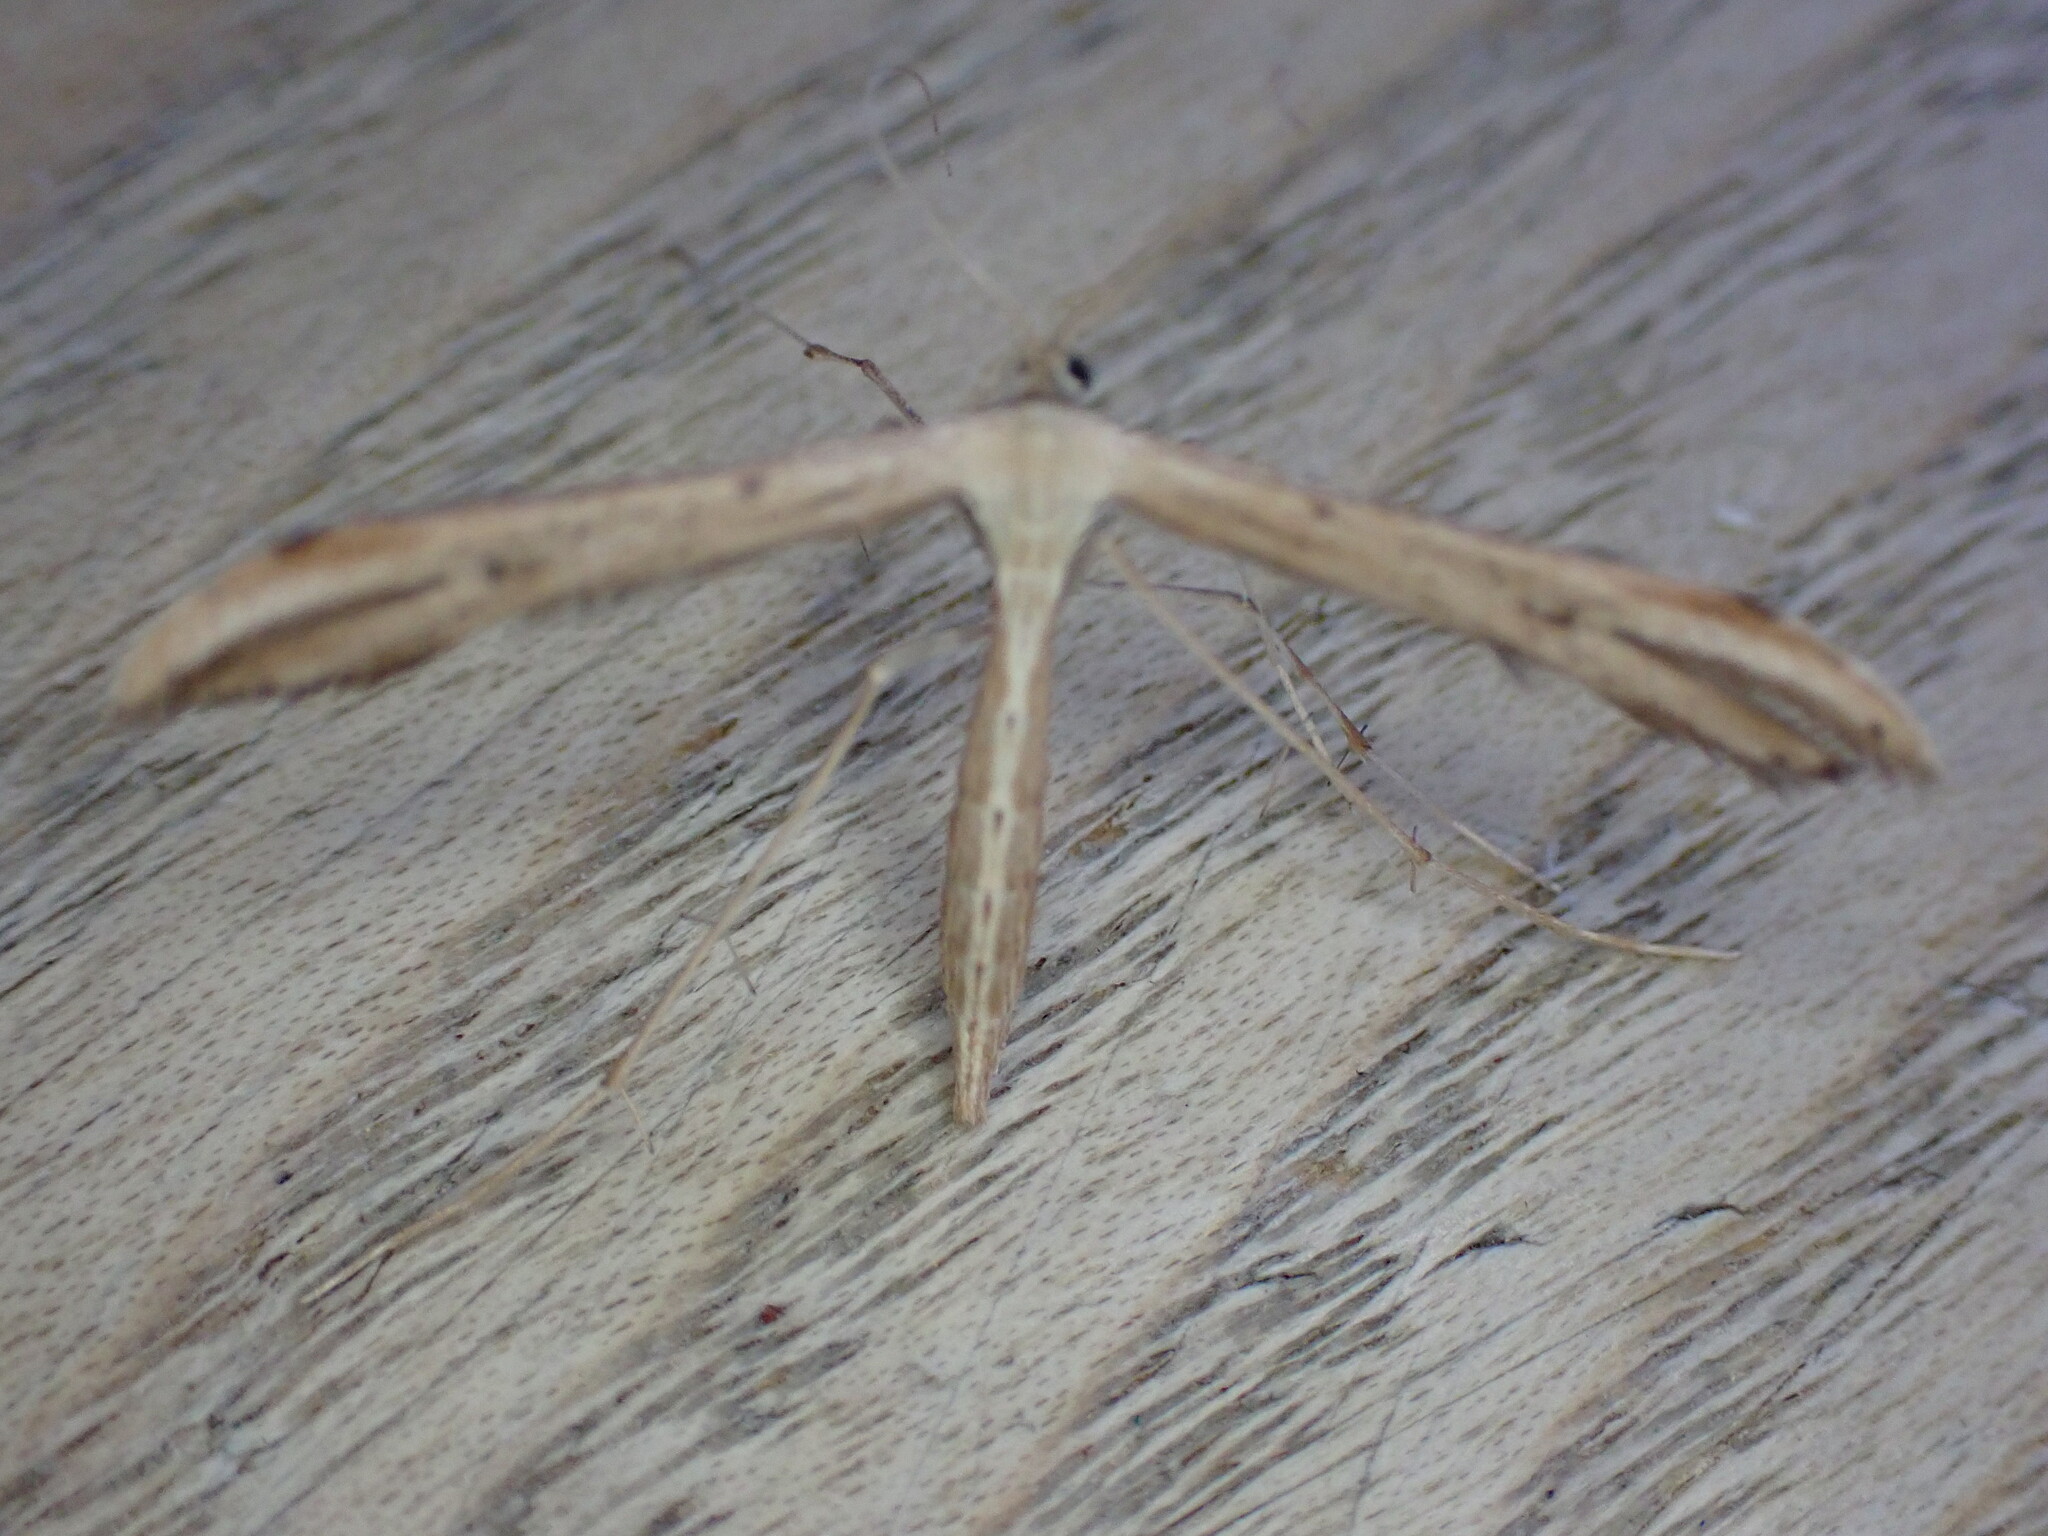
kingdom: Animalia
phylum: Arthropoda
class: Insecta
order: Lepidoptera
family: Pterophoridae
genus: Emmelina
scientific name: Emmelina monodactyla
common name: Common plume
